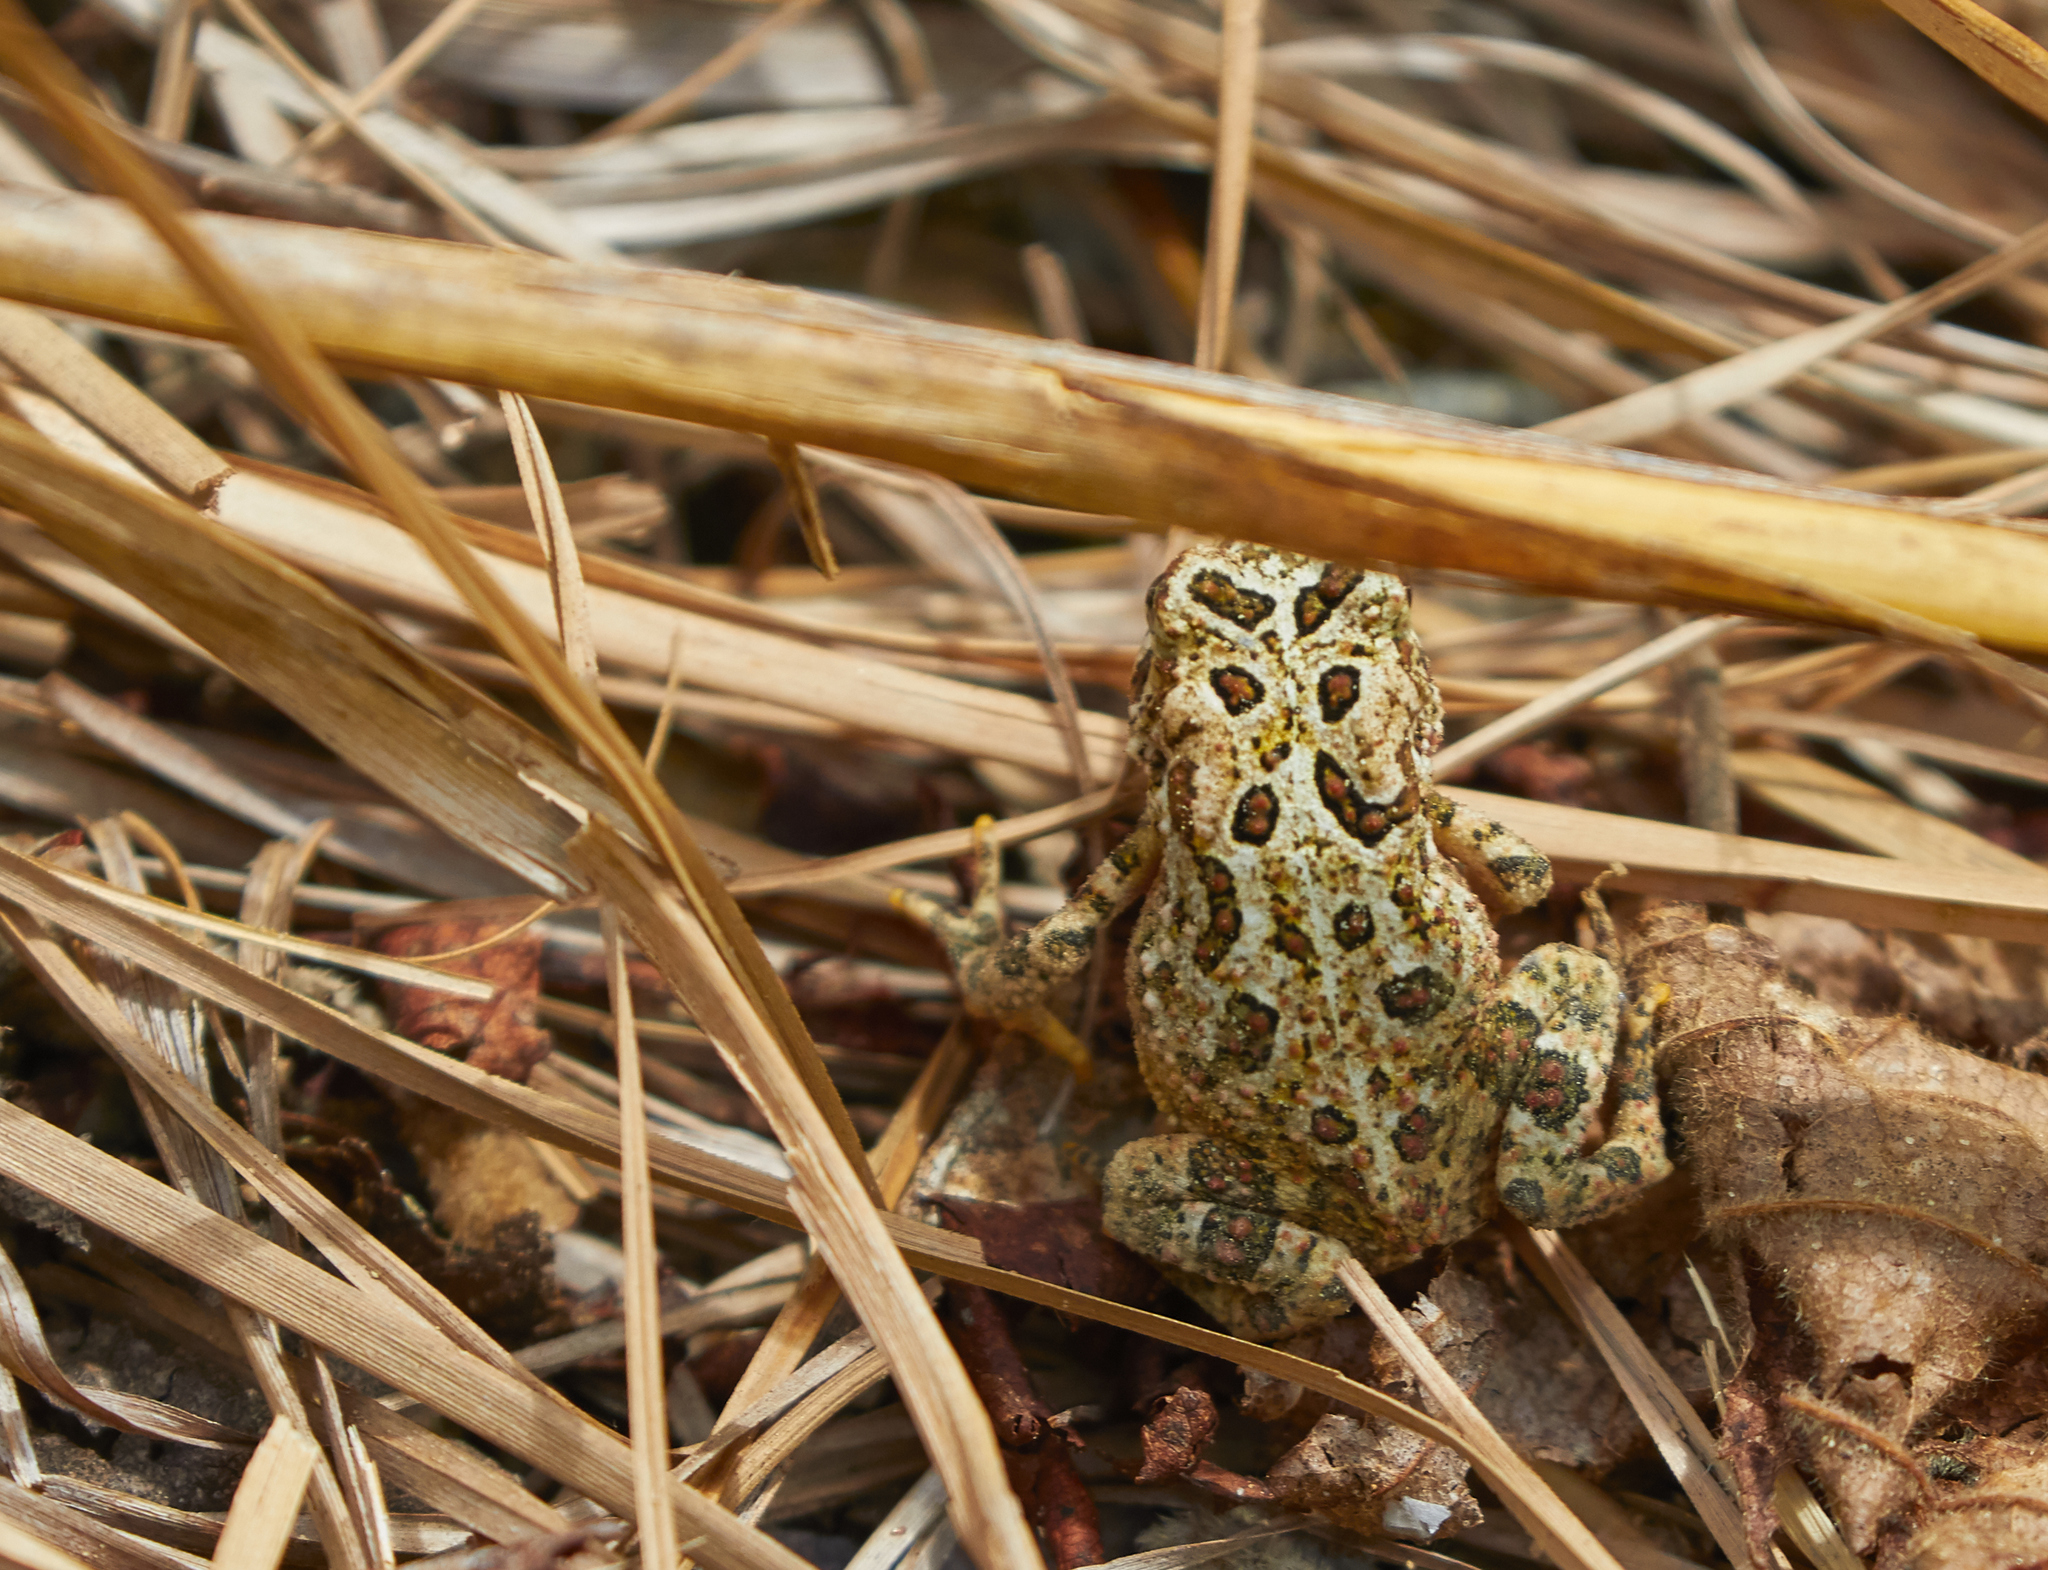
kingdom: Animalia
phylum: Chordata
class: Amphibia
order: Anura
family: Bufonidae
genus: Anaxyrus
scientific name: Anaxyrus americanus
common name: American toad
